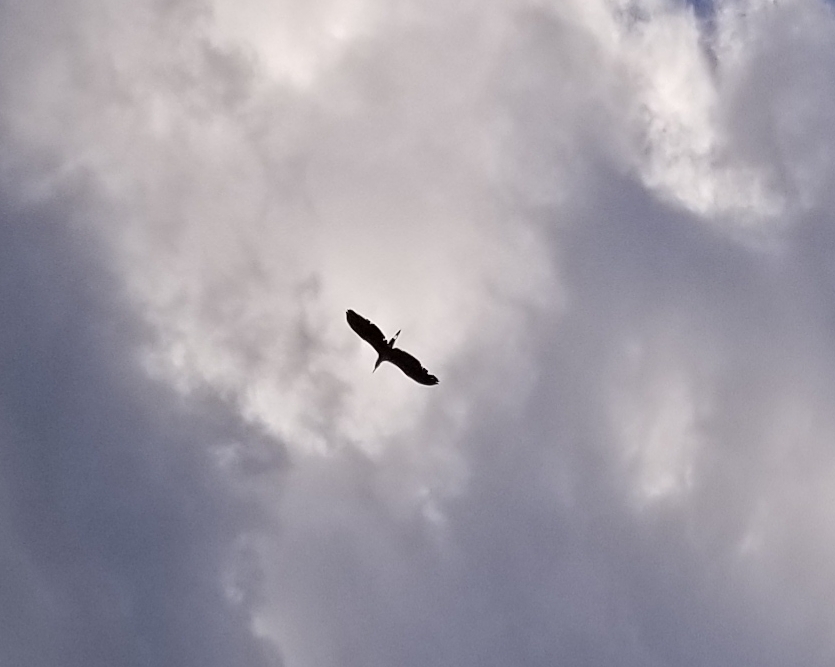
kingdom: Animalia
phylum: Chordata
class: Aves
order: Pelecaniformes
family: Ardeidae
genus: Ardea
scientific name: Ardea herodias
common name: Great blue heron
